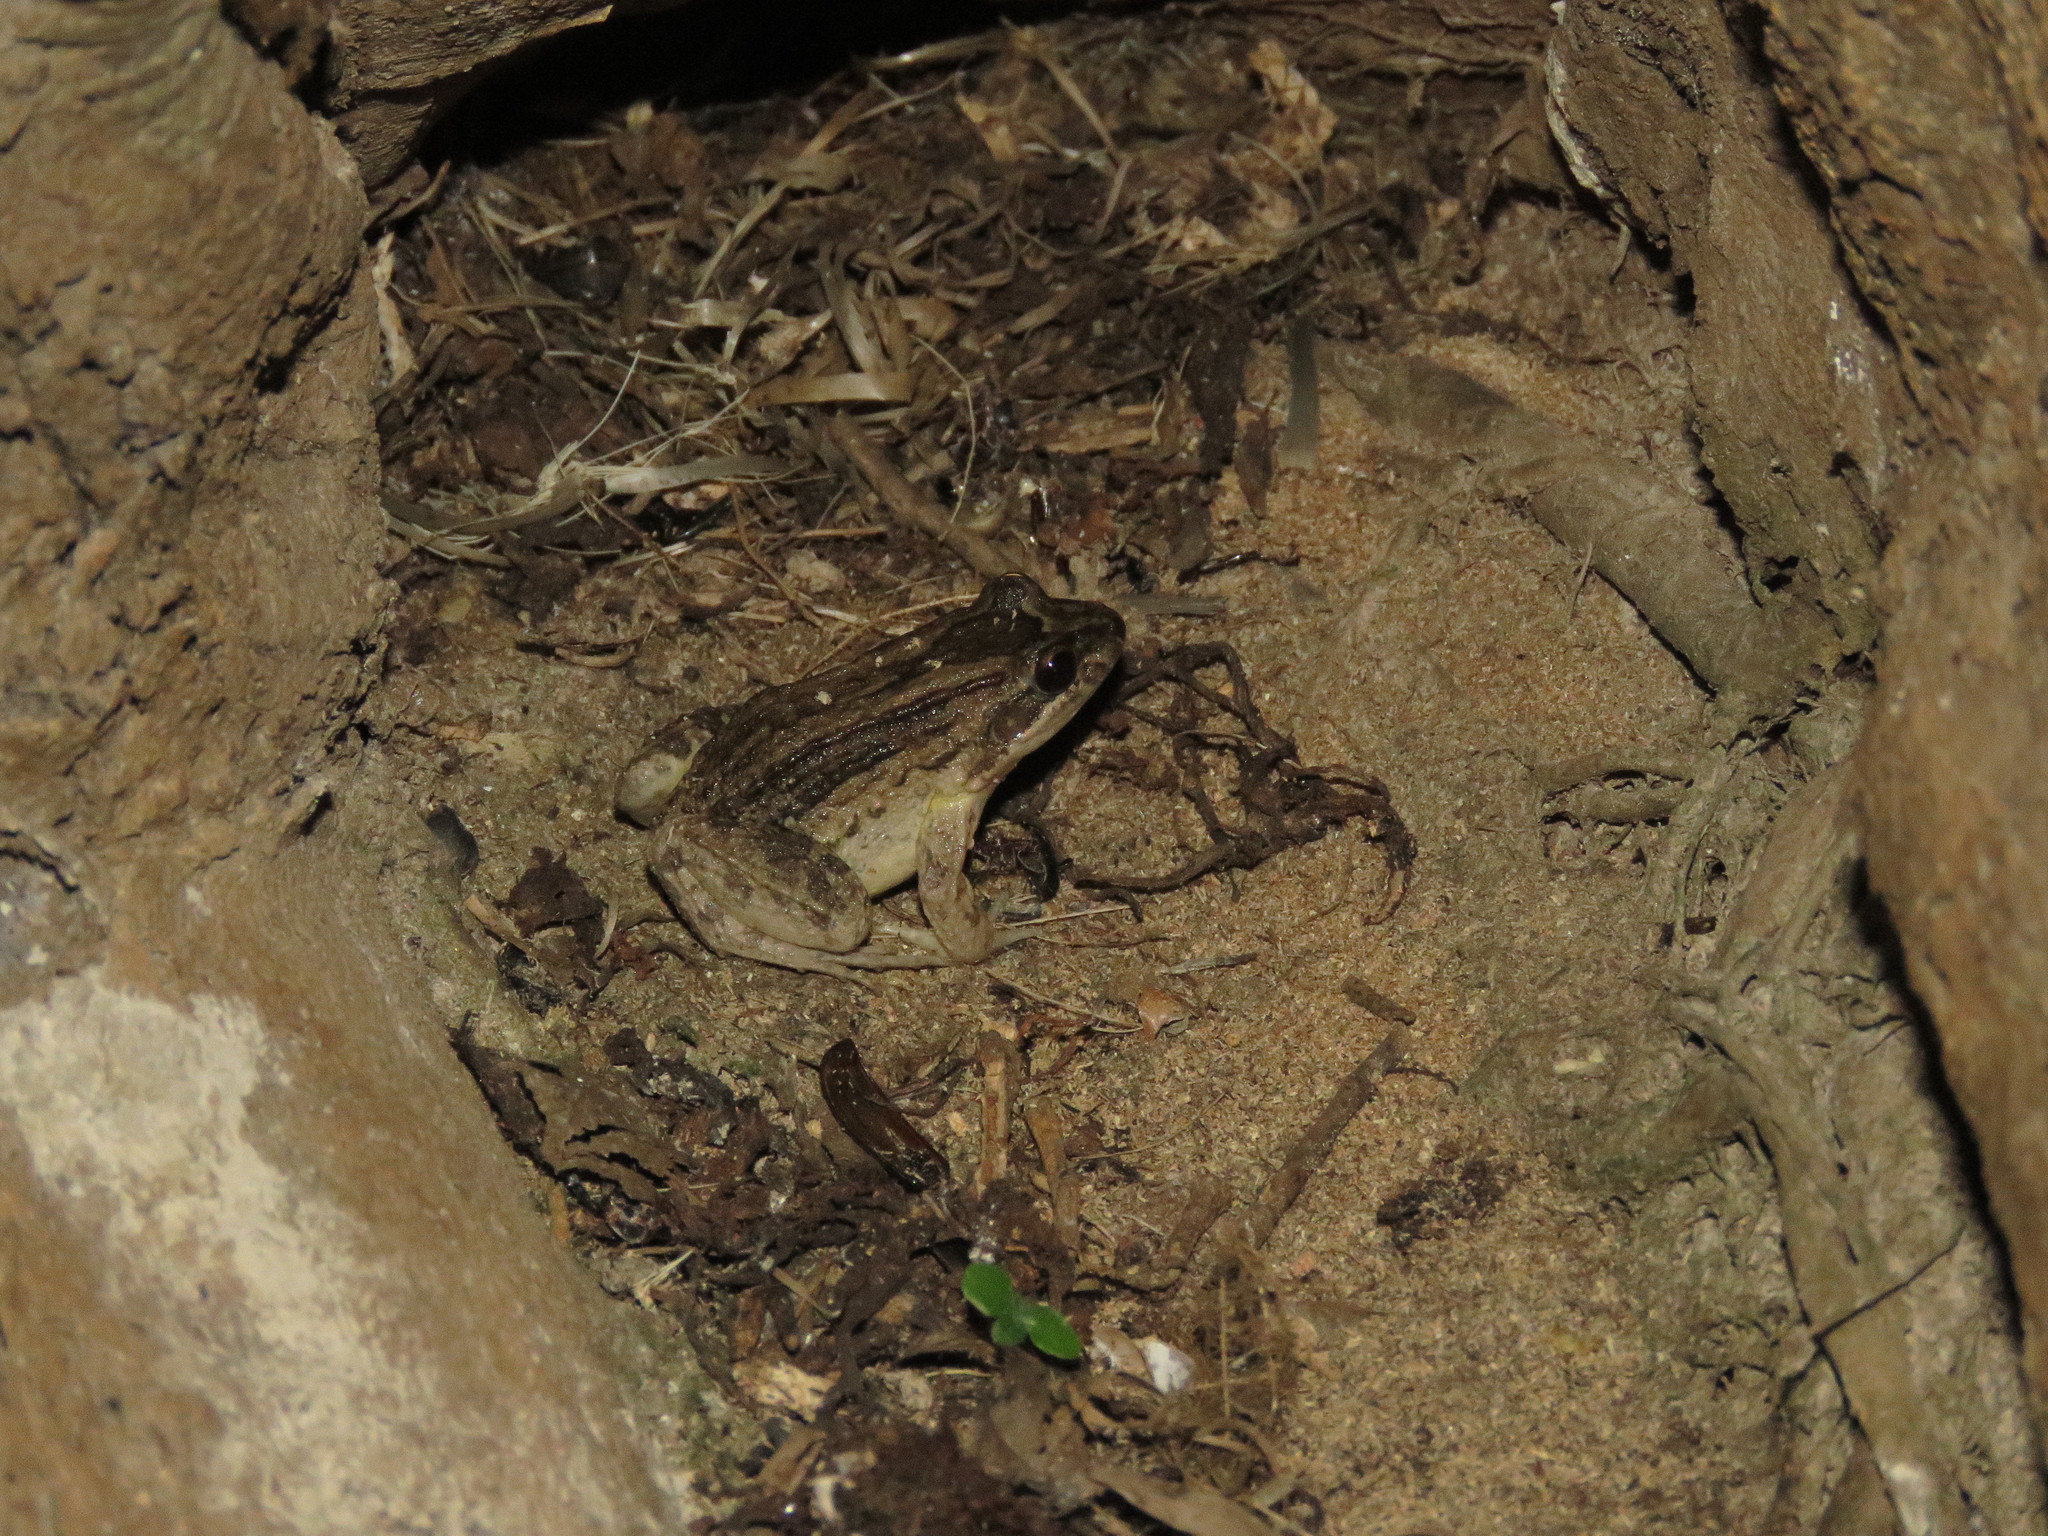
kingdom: Animalia
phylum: Chordata
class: Amphibia
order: Anura
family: Leptodactylidae
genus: Leptodactylus
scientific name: Leptodactylus petersii
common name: Peters' thin-toed frog
